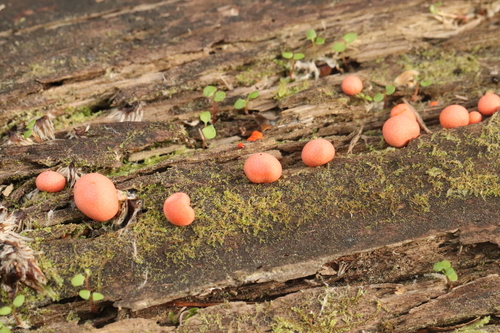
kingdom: Protozoa
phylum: Mycetozoa
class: Myxomycetes
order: Cribrariales
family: Tubiferaceae
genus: Lycogala
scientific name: Lycogala epidendrum
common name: Wolf's milk
